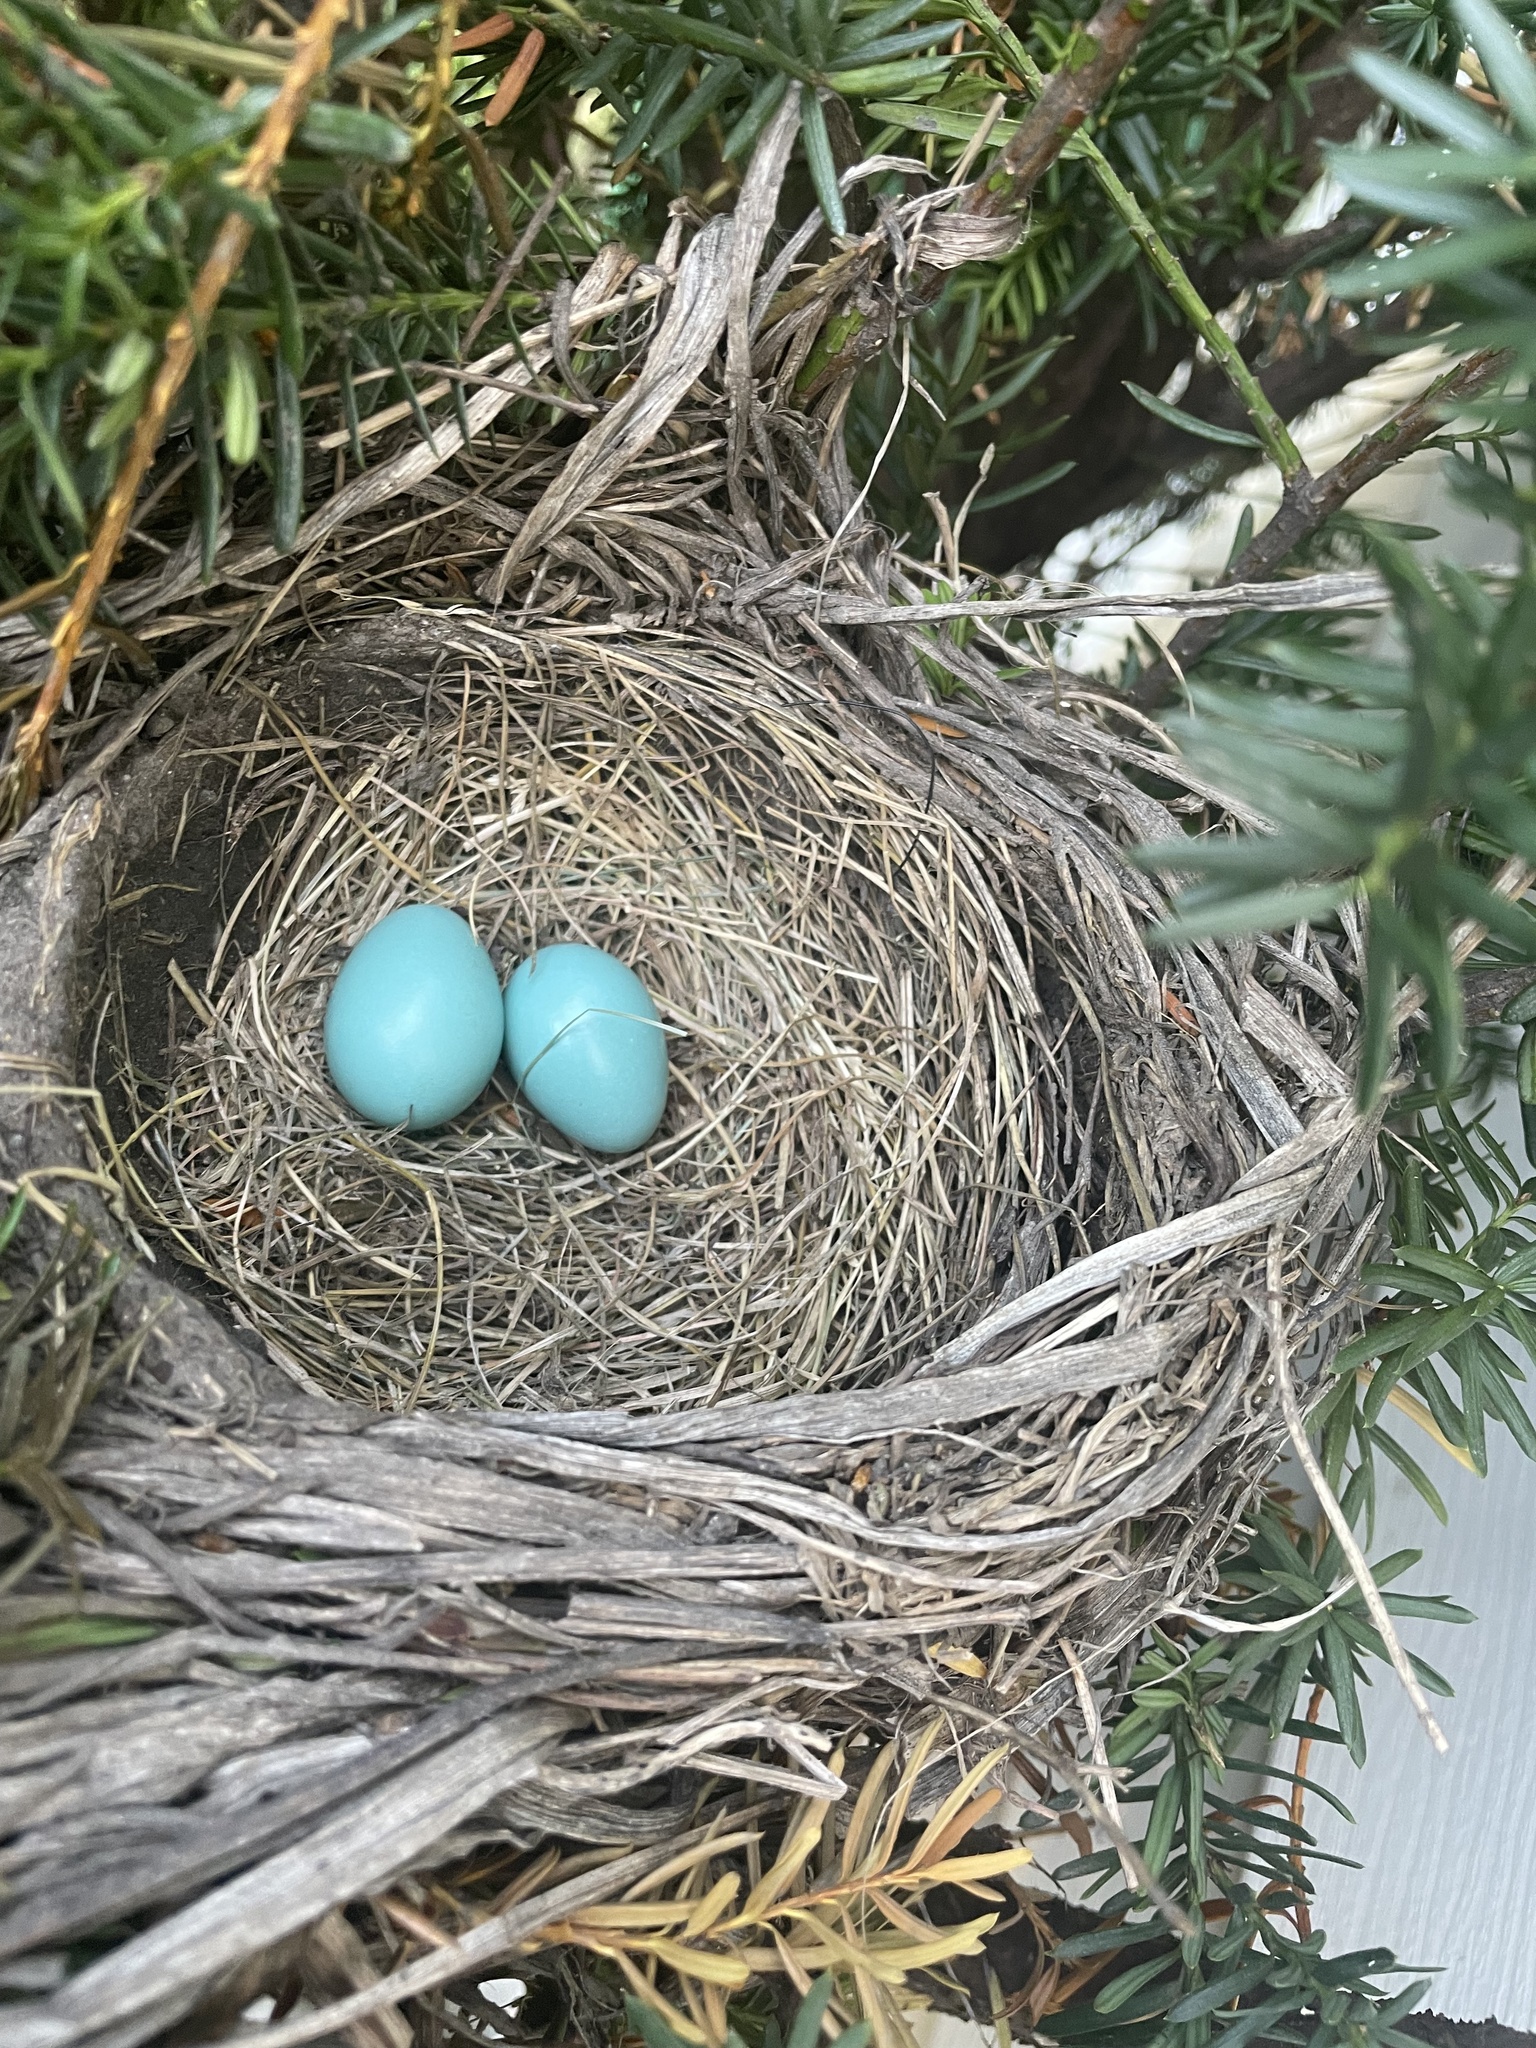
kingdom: Animalia
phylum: Chordata
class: Aves
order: Passeriformes
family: Turdidae
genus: Turdus
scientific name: Turdus migratorius
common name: American robin
